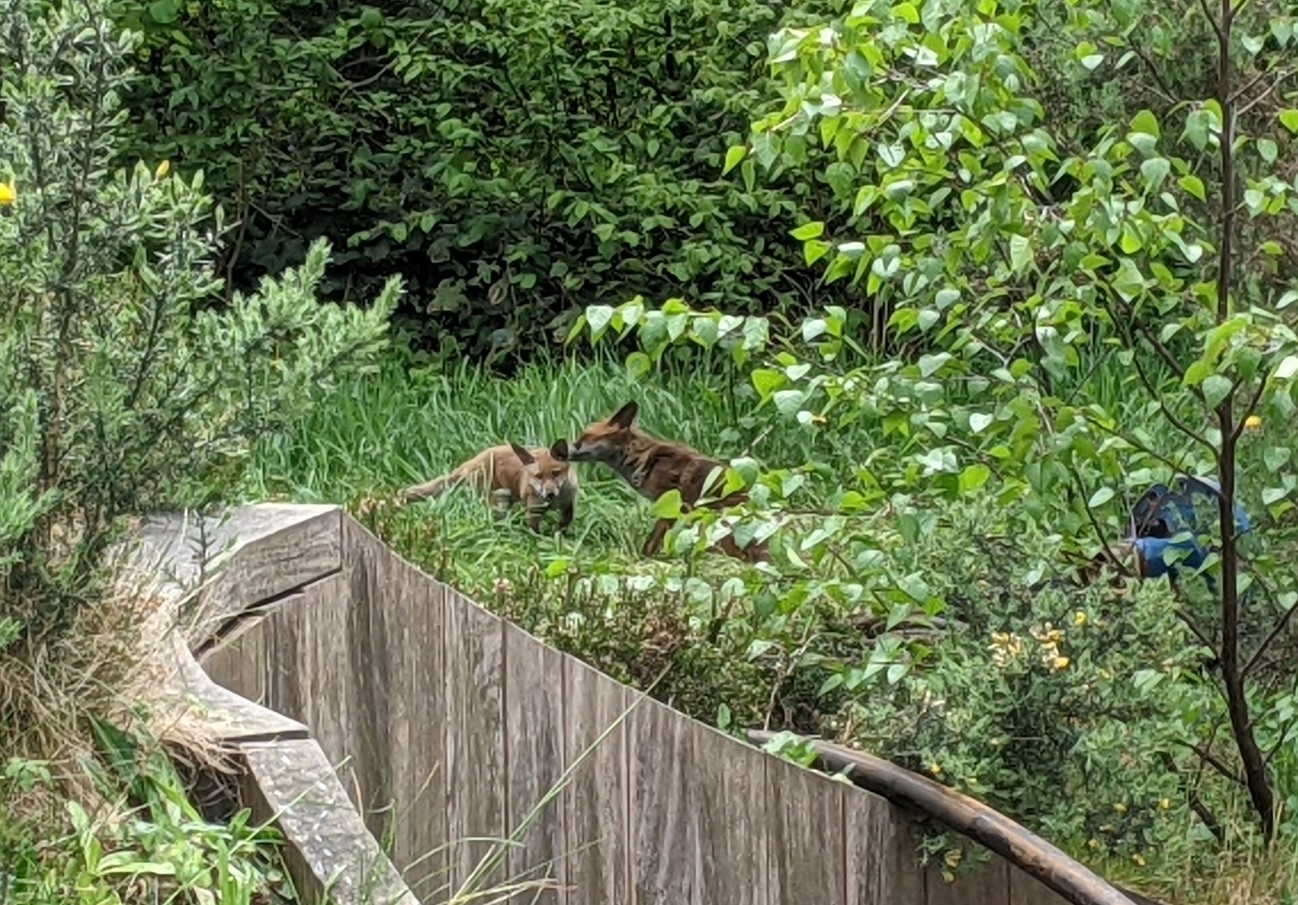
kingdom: Animalia
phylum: Chordata
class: Mammalia
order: Carnivora
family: Canidae
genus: Vulpes
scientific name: Vulpes vulpes
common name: Red fox
